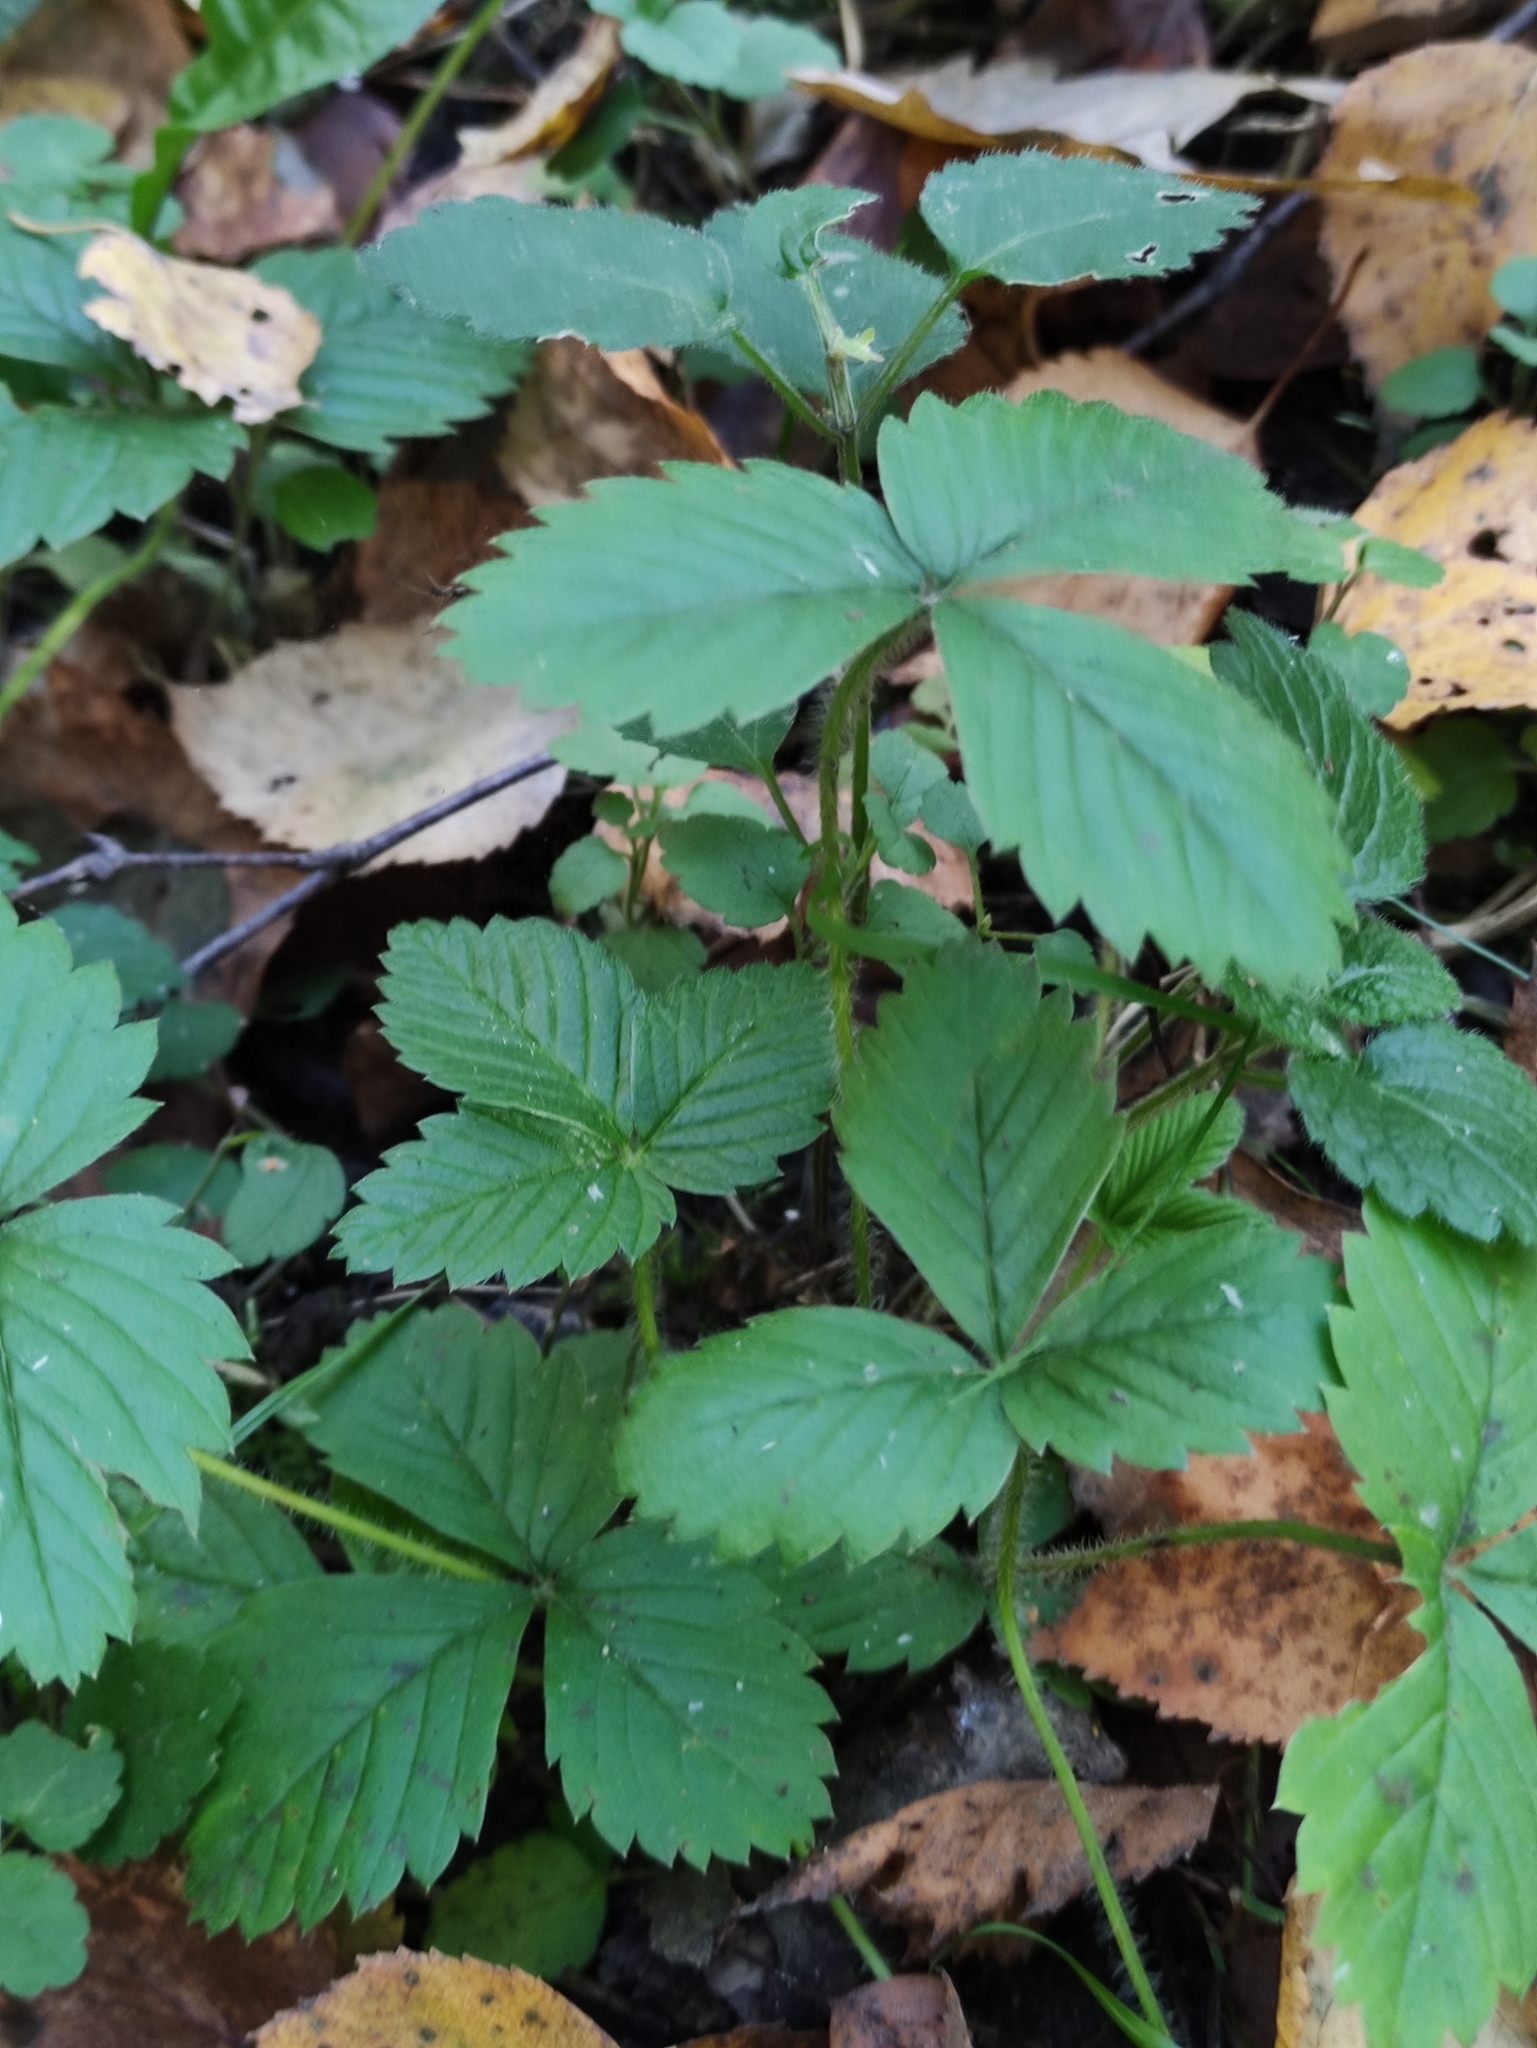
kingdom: Plantae
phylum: Tracheophyta
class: Magnoliopsida
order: Rosales
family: Rosaceae
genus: Fragaria
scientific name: Fragaria moschata
